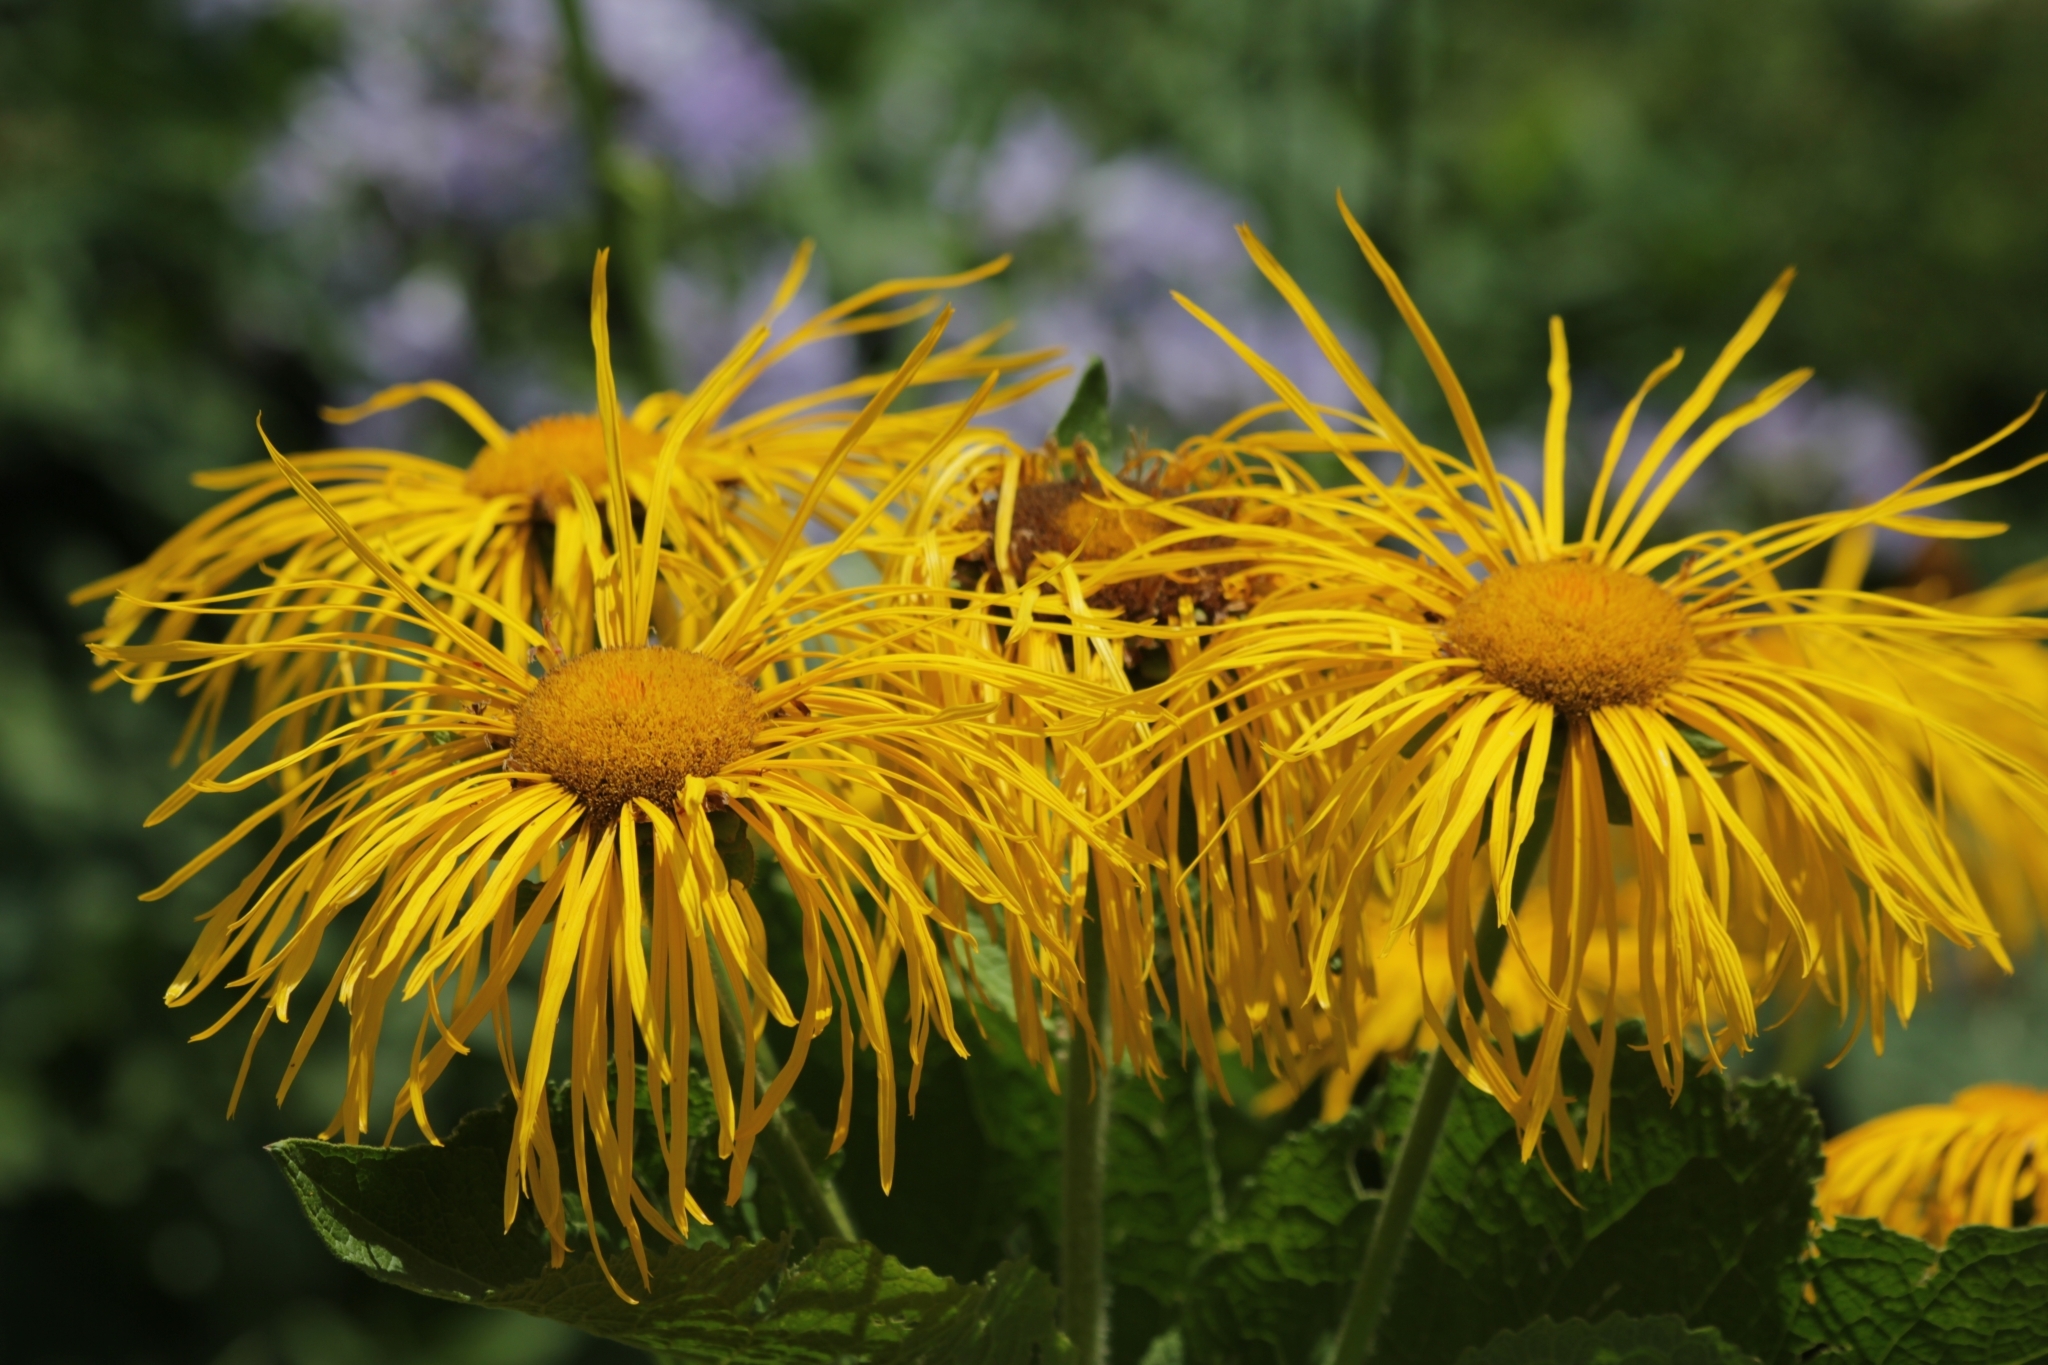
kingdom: Plantae
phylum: Tracheophyta
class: Magnoliopsida
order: Asterales
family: Asteraceae
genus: Inula
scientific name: Inula magnifica
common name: Giant fleabane
